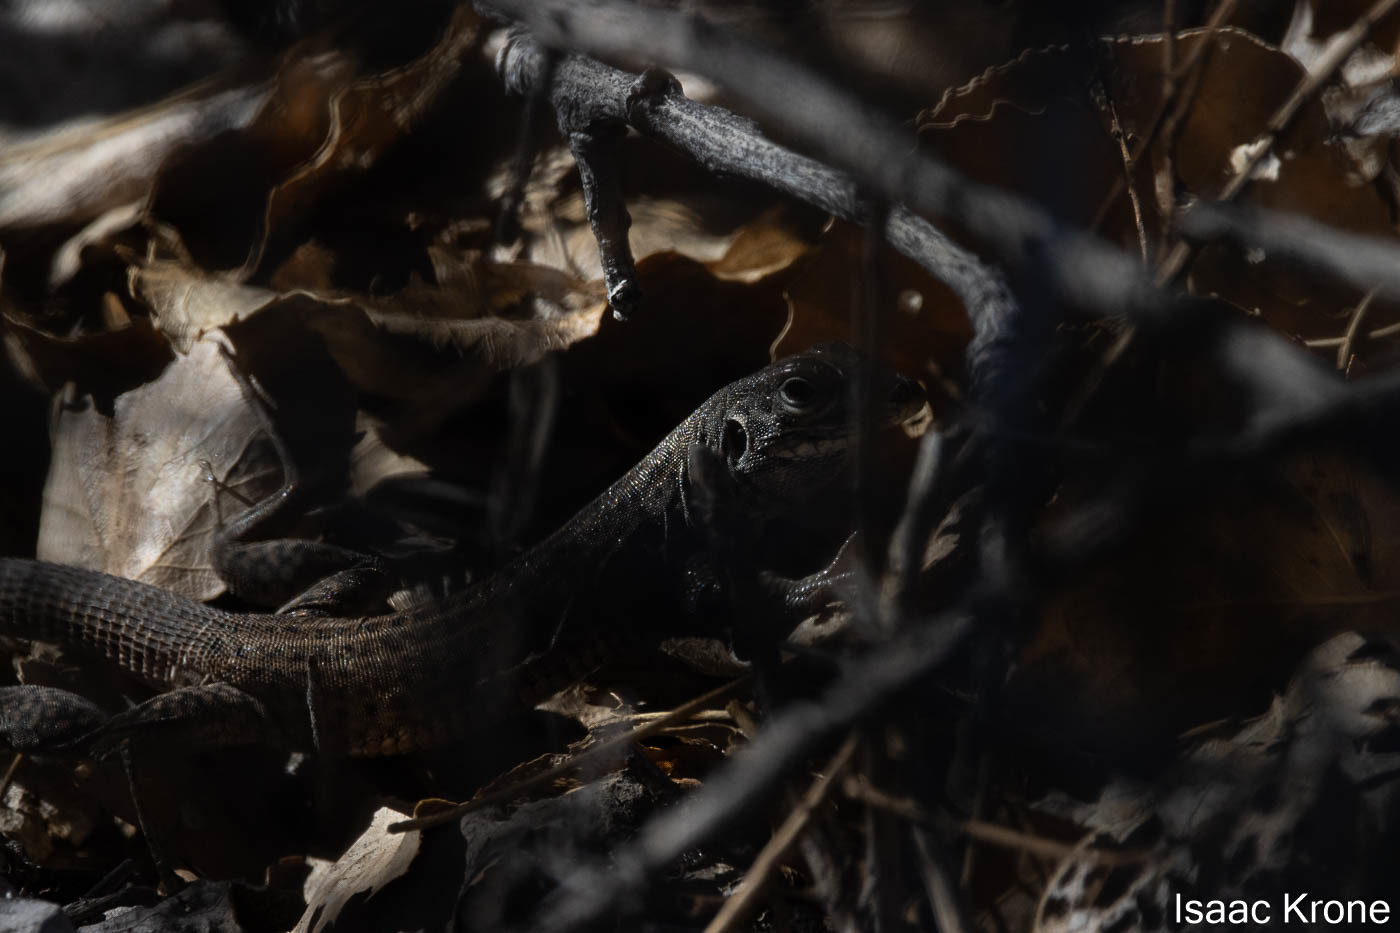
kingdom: Animalia
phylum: Chordata
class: Squamata
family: Teiidae
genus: Aspidoscelis
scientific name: Aspidoscelis tigris
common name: Tiger whiptail
